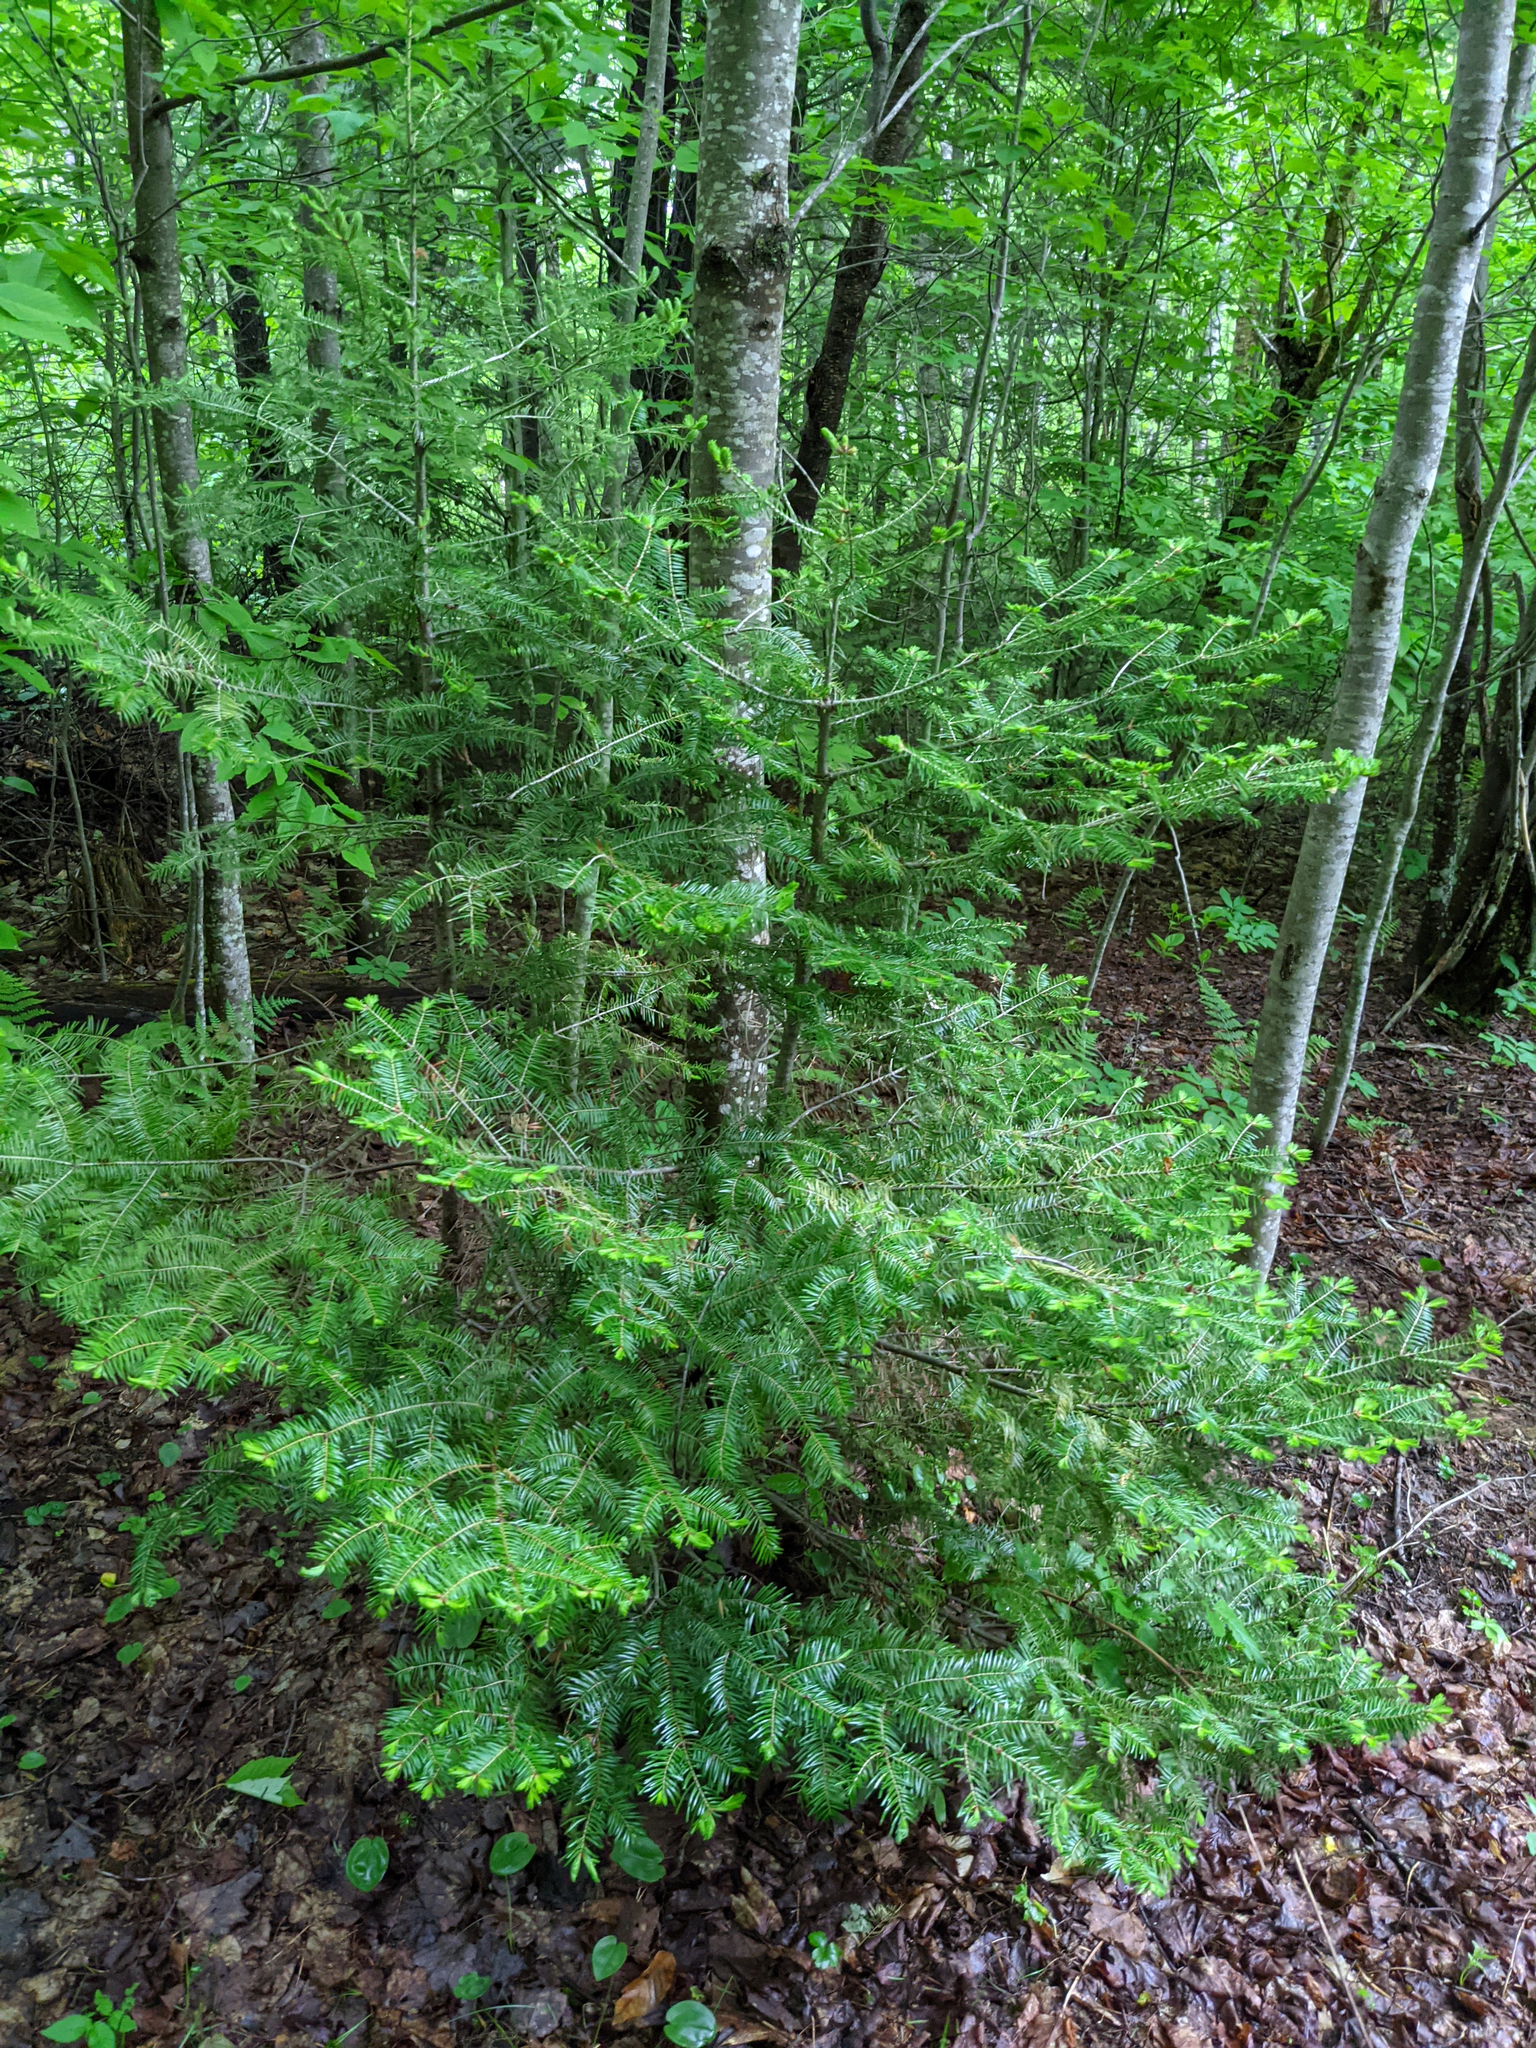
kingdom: Plantae
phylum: Tracheophyta
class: Pinopsida
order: Pinales
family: Pinaceae
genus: Abies
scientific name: Abies balsamea
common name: Balsam fir
